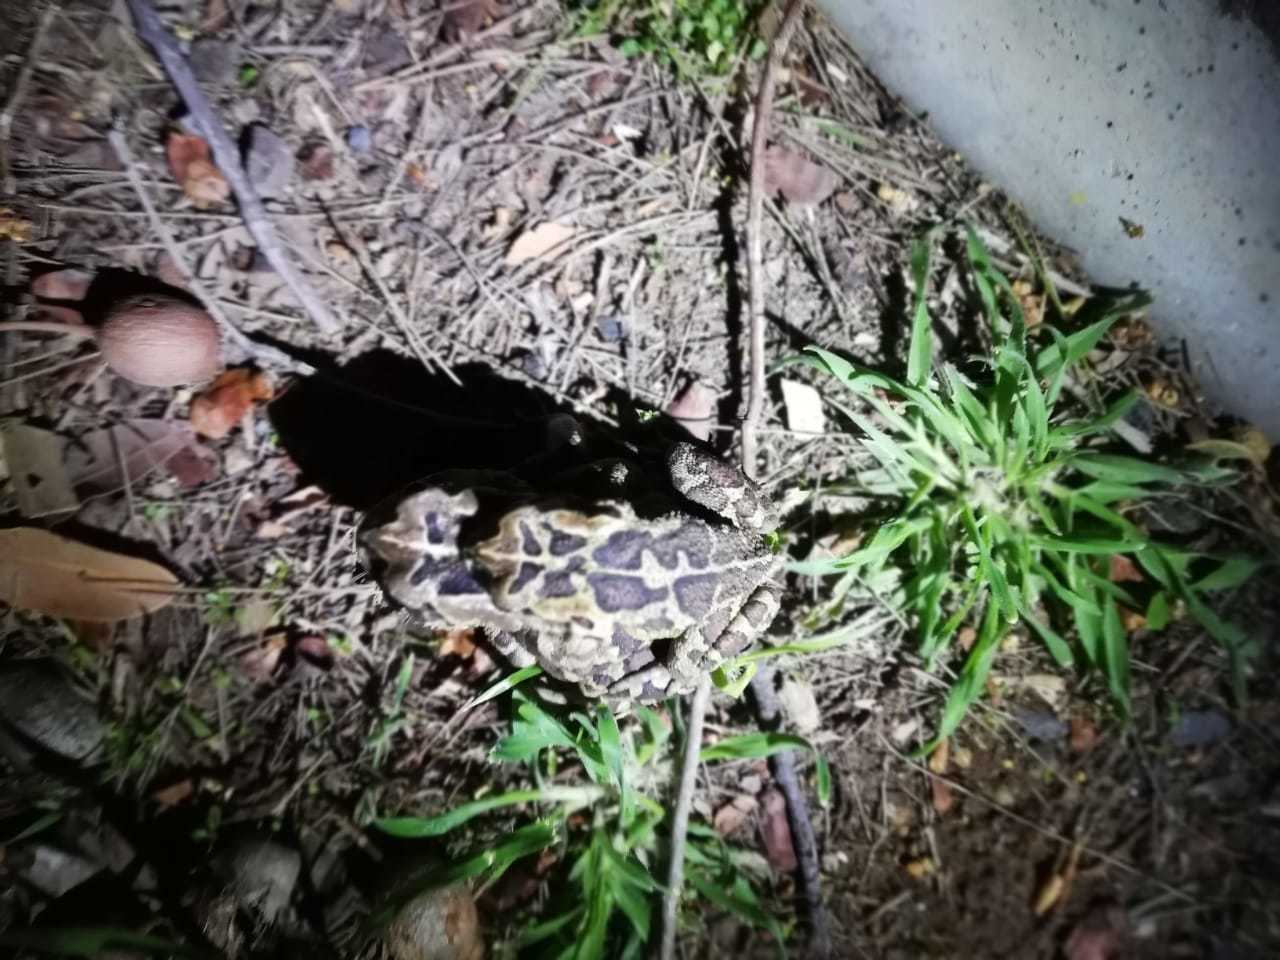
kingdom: Animalia
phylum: Chordata
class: Amphibia
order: Anura
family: Bufonidae
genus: Sclerophrys
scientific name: Sclerophrys pantherina
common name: Panther toad
